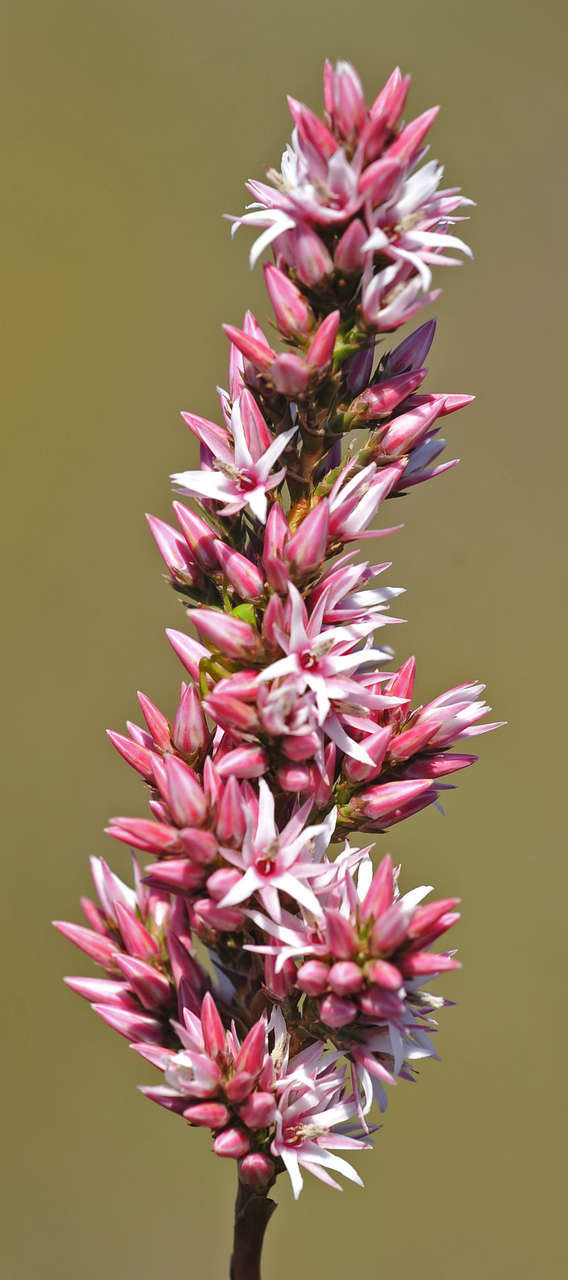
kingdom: Plantae
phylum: Tracheophyta
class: Magnoliopsida
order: Ericales
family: Ericaceae
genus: Sprengelia
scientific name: Sprengelia incarnata
